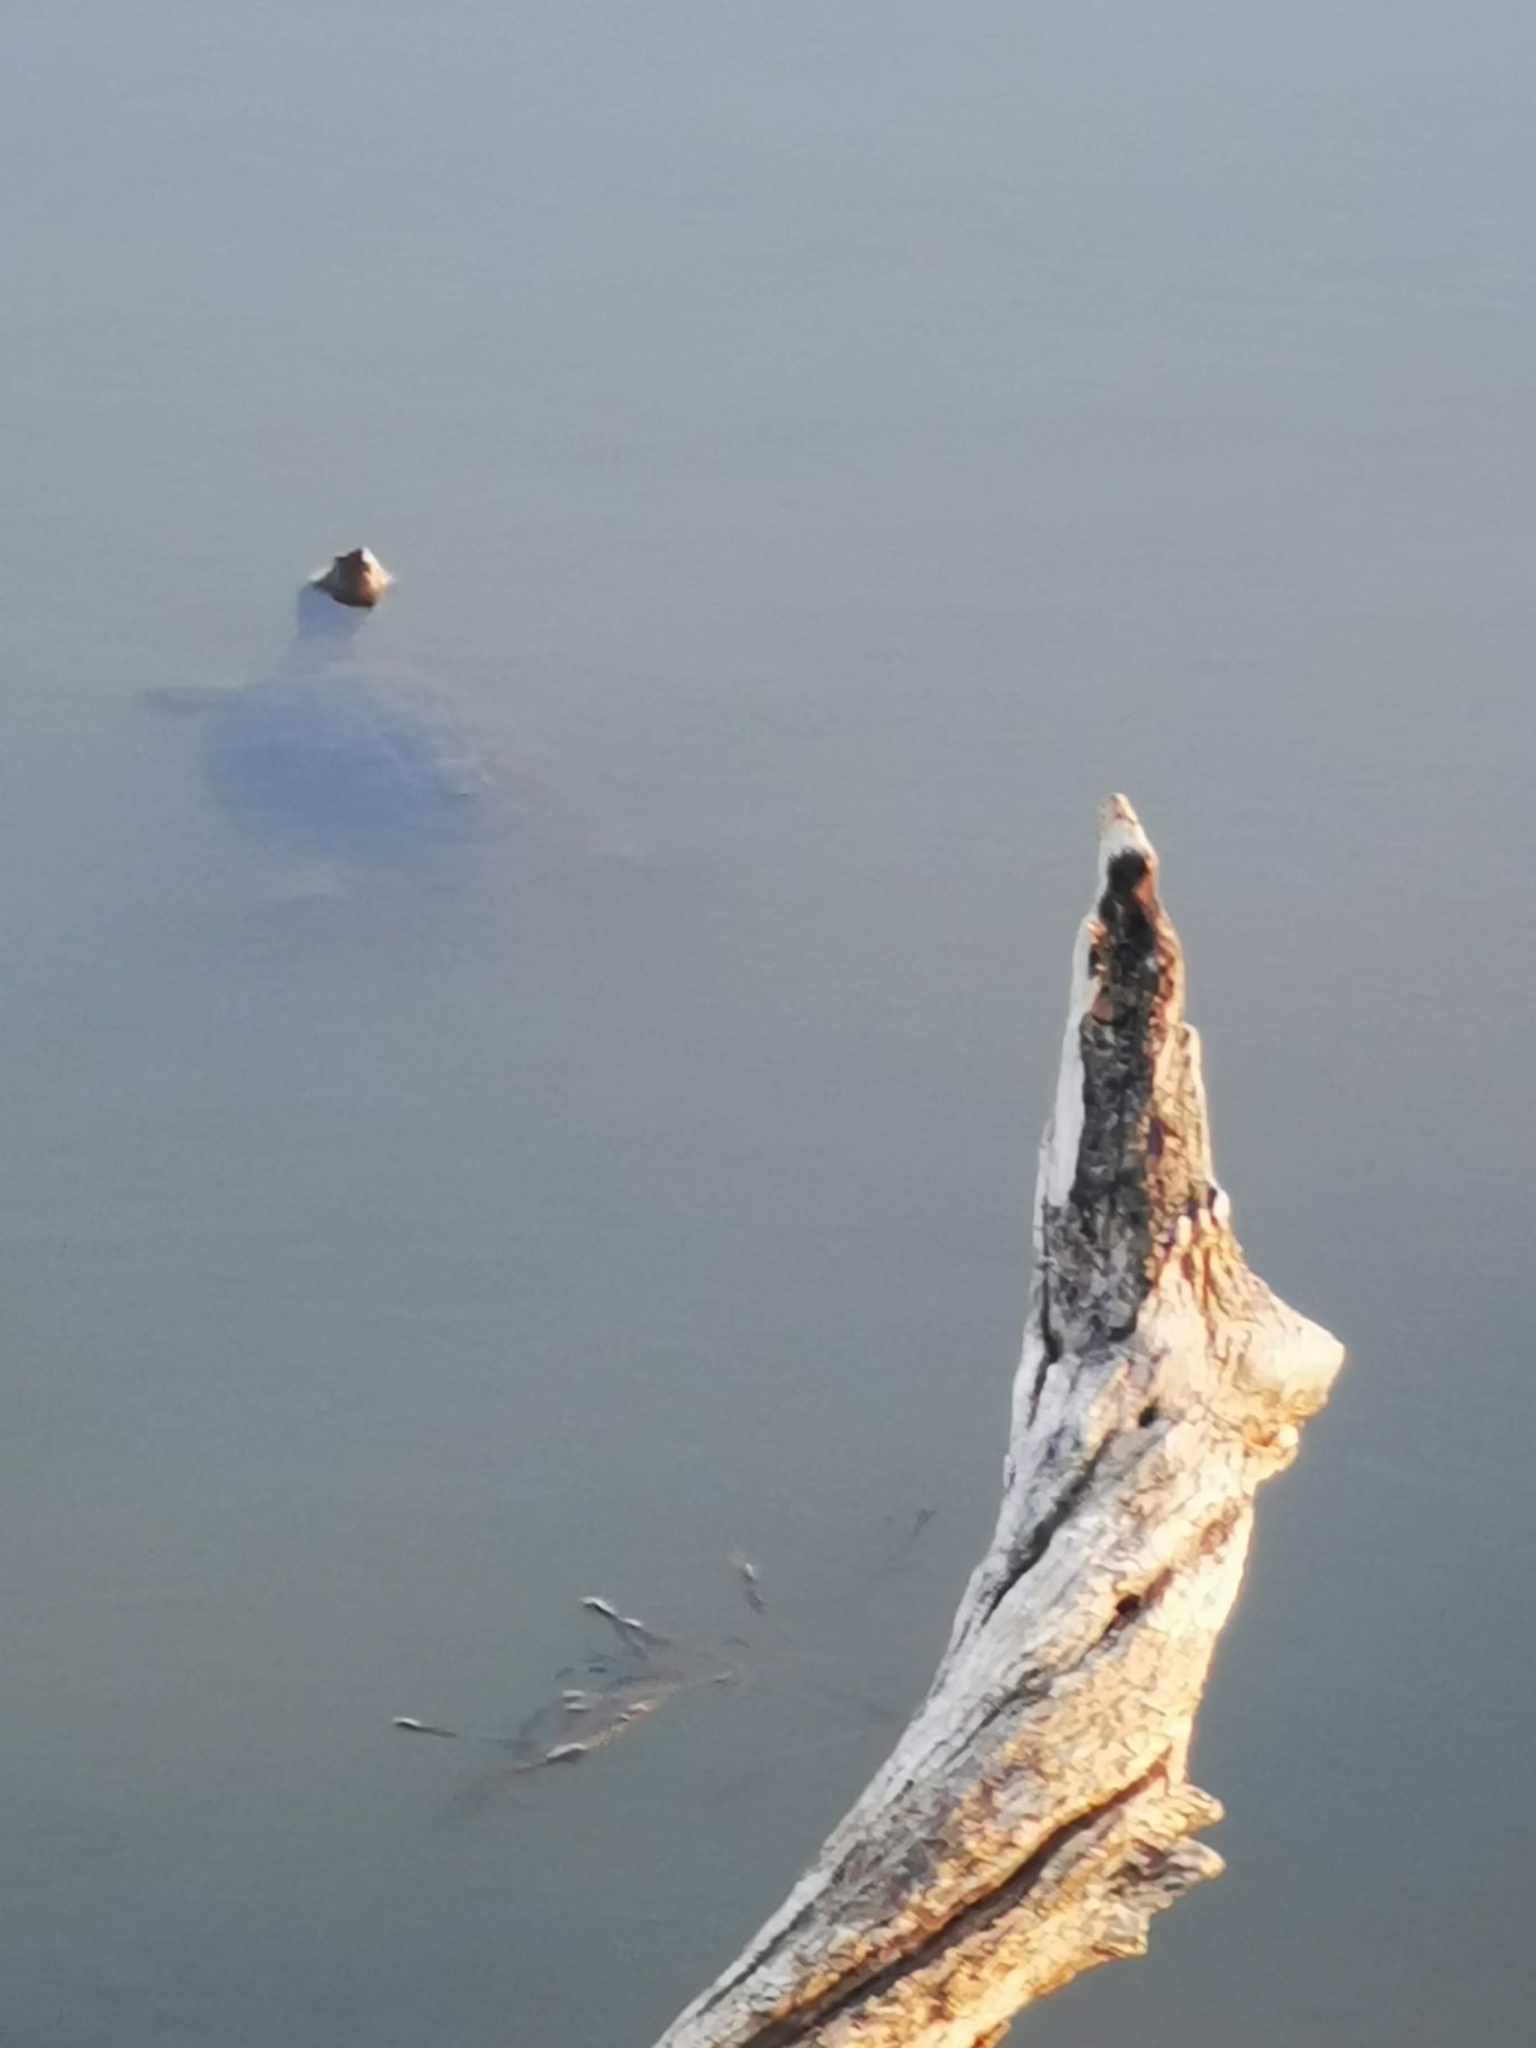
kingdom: Animalia
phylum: Chordata
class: Testudines
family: Pelomedusidae
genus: Pelomedusa
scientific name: Pelomedusa galeata
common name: South african helmeted terrapin
